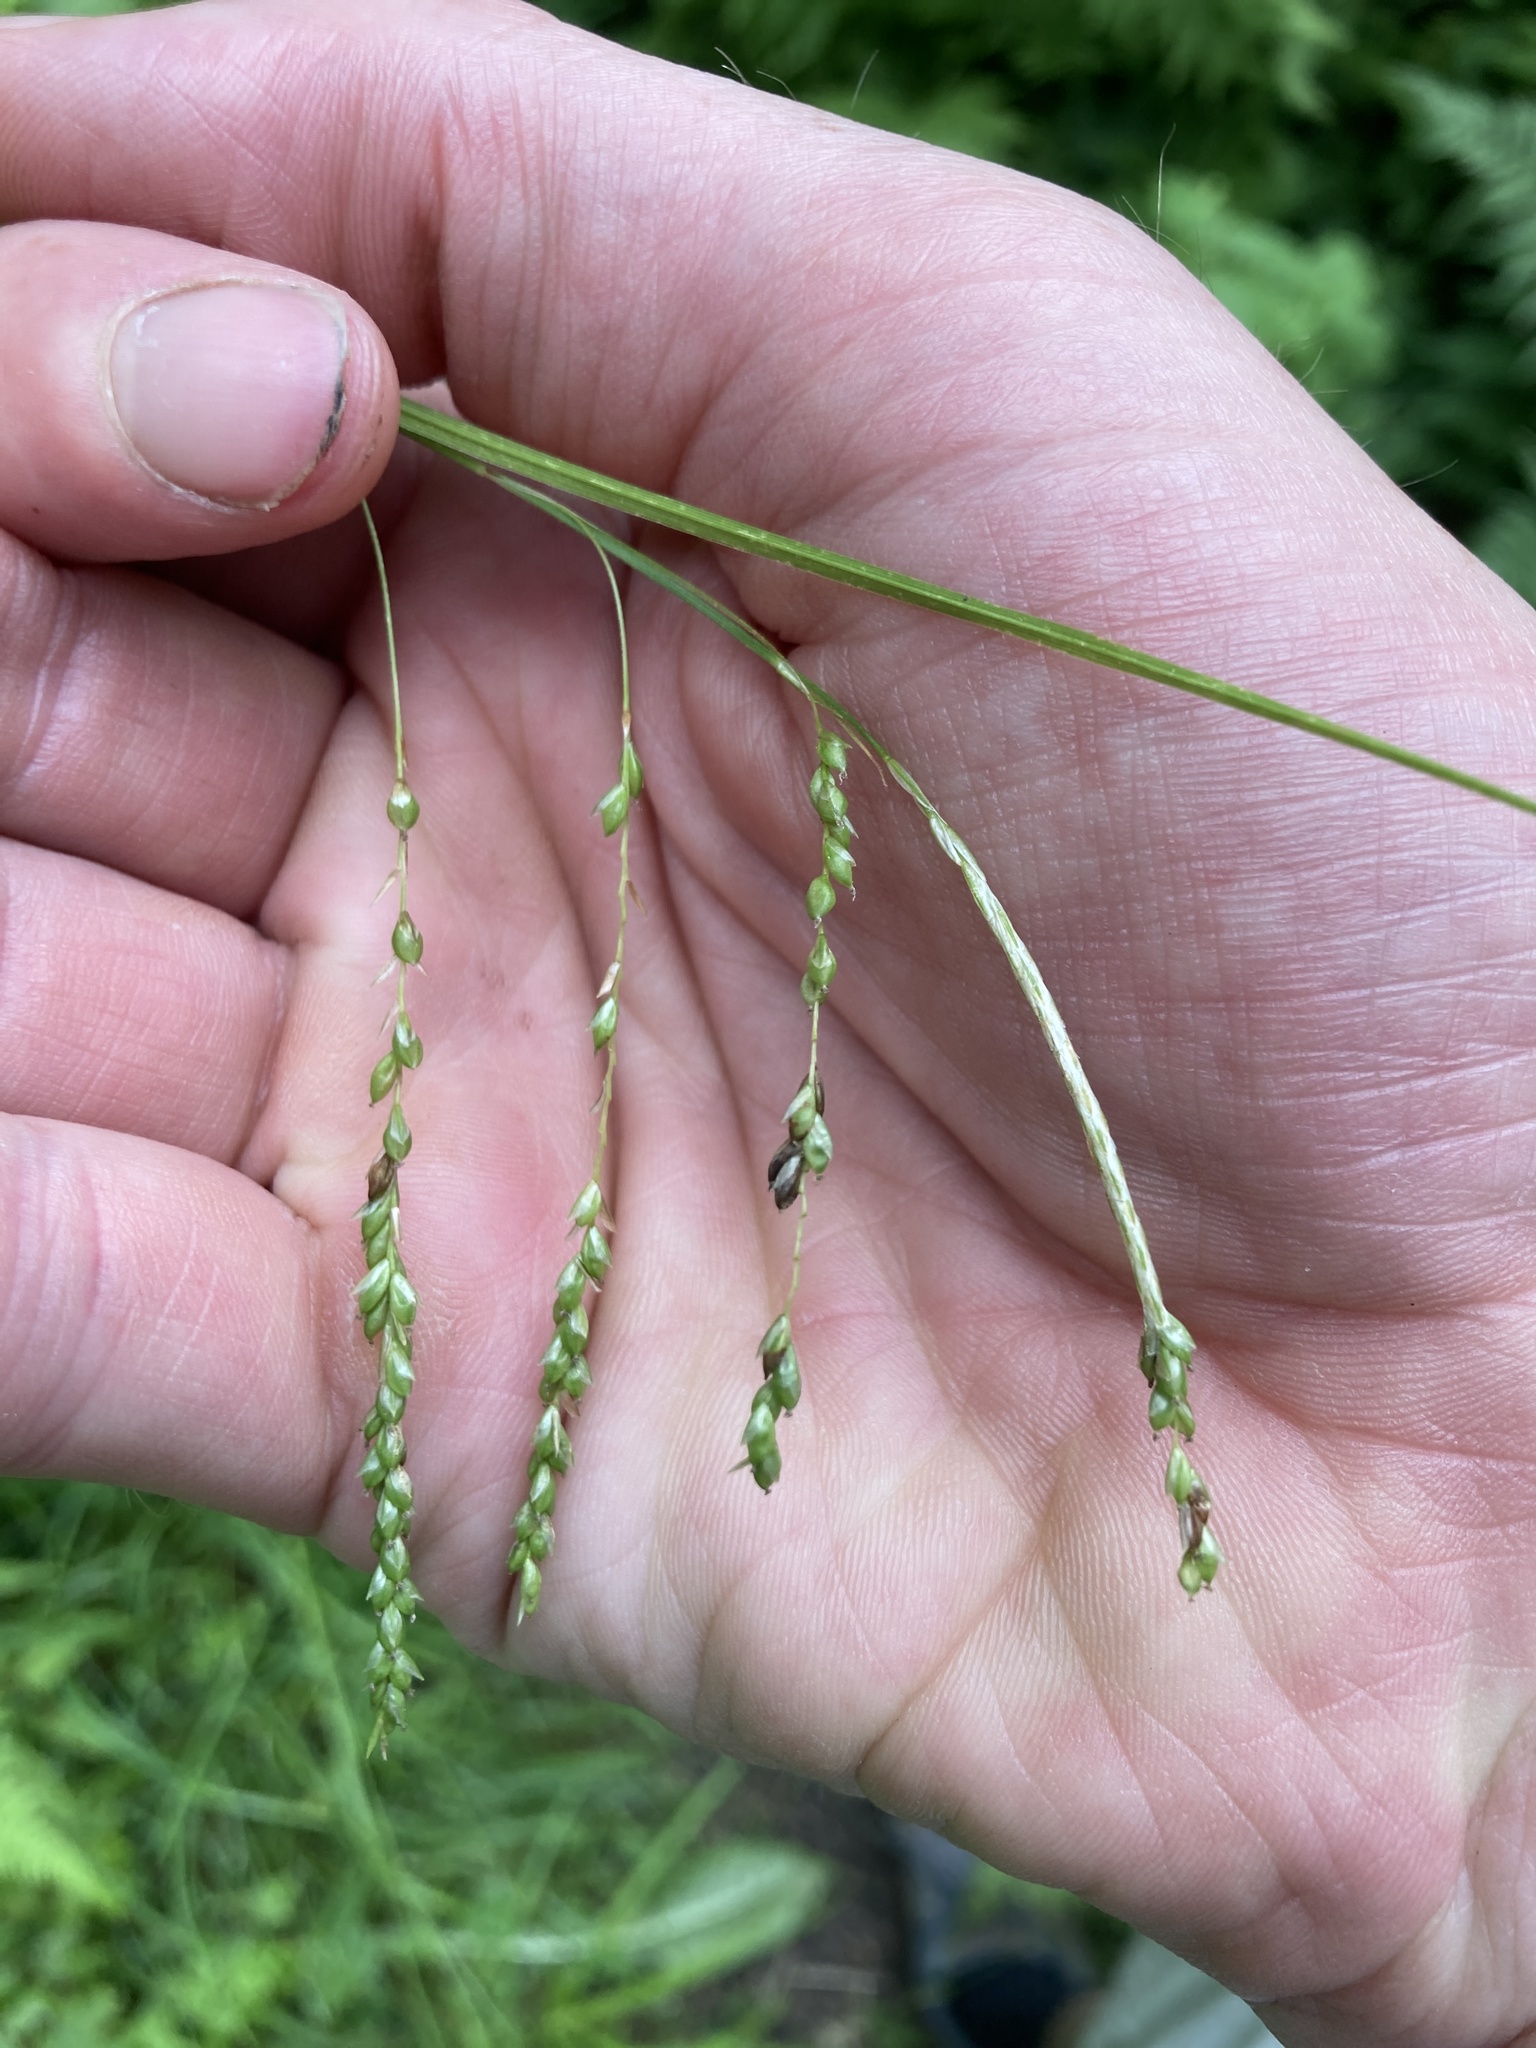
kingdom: Plantae
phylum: Tracheophyta
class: Liliopsida
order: Poales
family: Cyperaceae
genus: Carex
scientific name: Carex gracillima
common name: Graceful sedge
